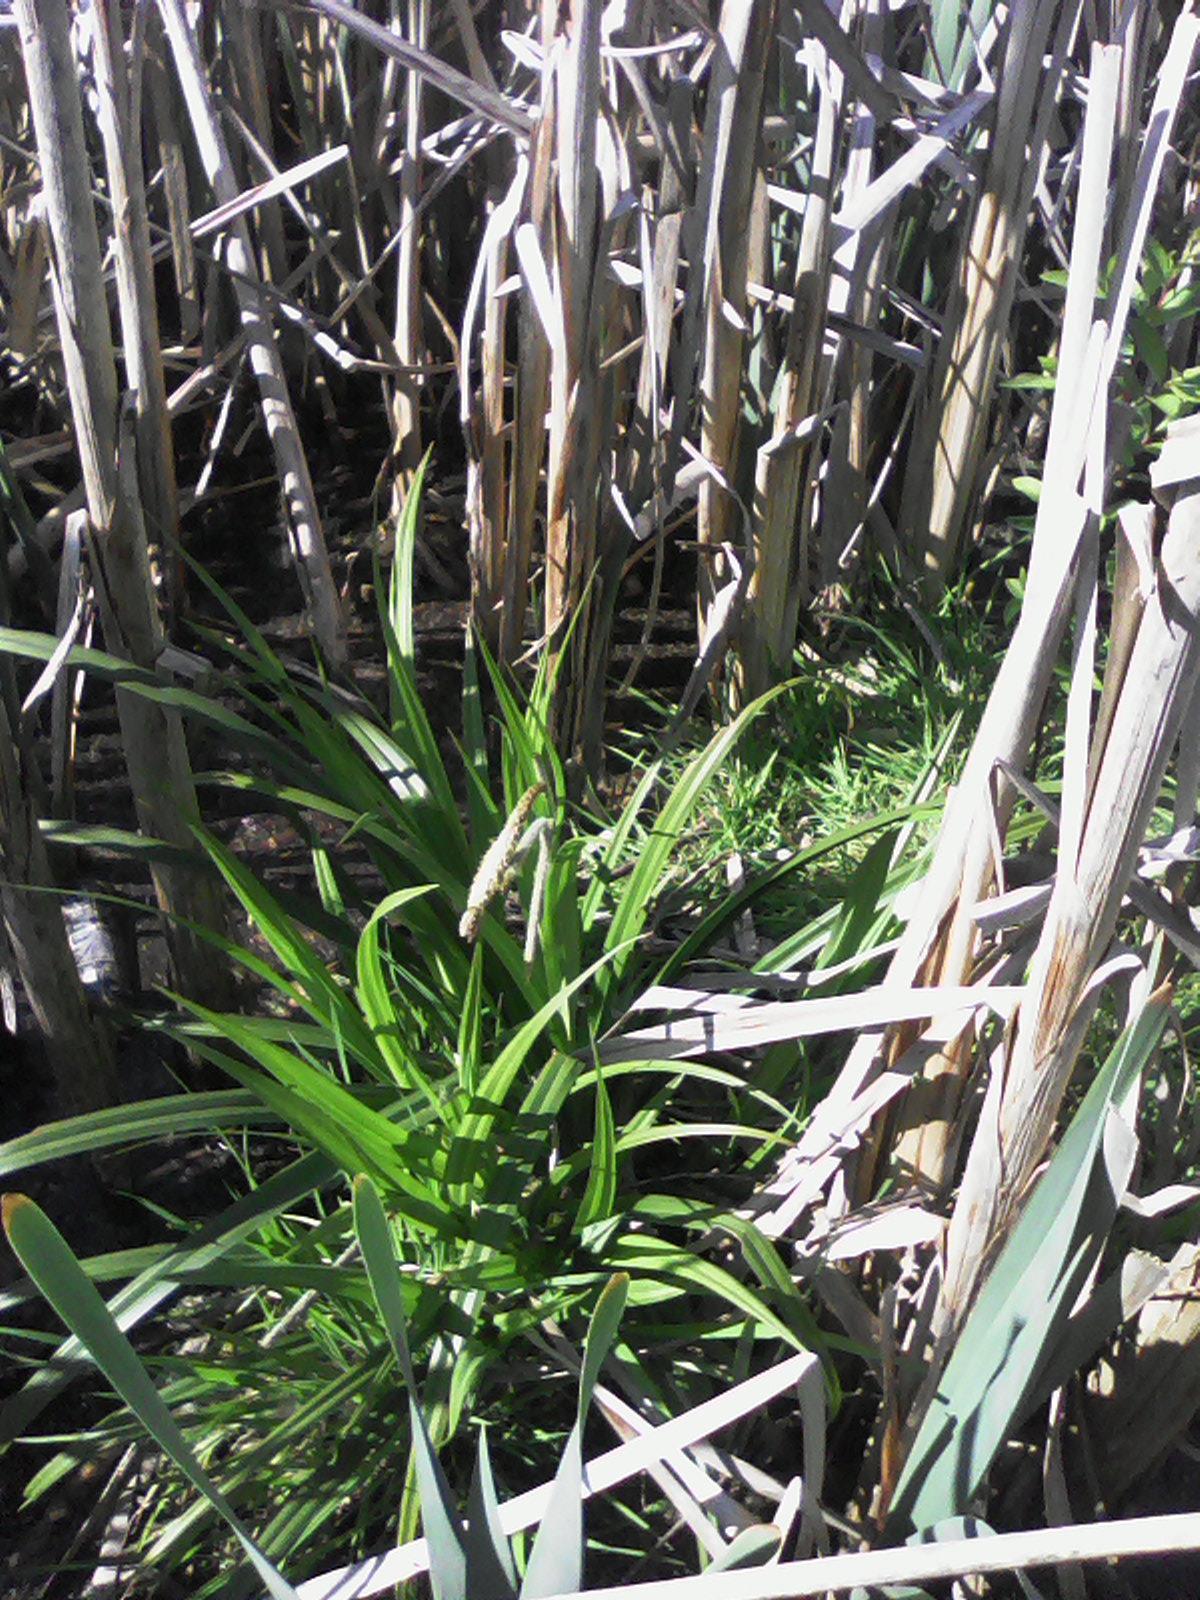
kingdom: Plantae
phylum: Tracheophyta
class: Liliopsida
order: Poales
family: Cyperaceae
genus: Carex
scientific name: Carex pendula
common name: Pendulous sedge
